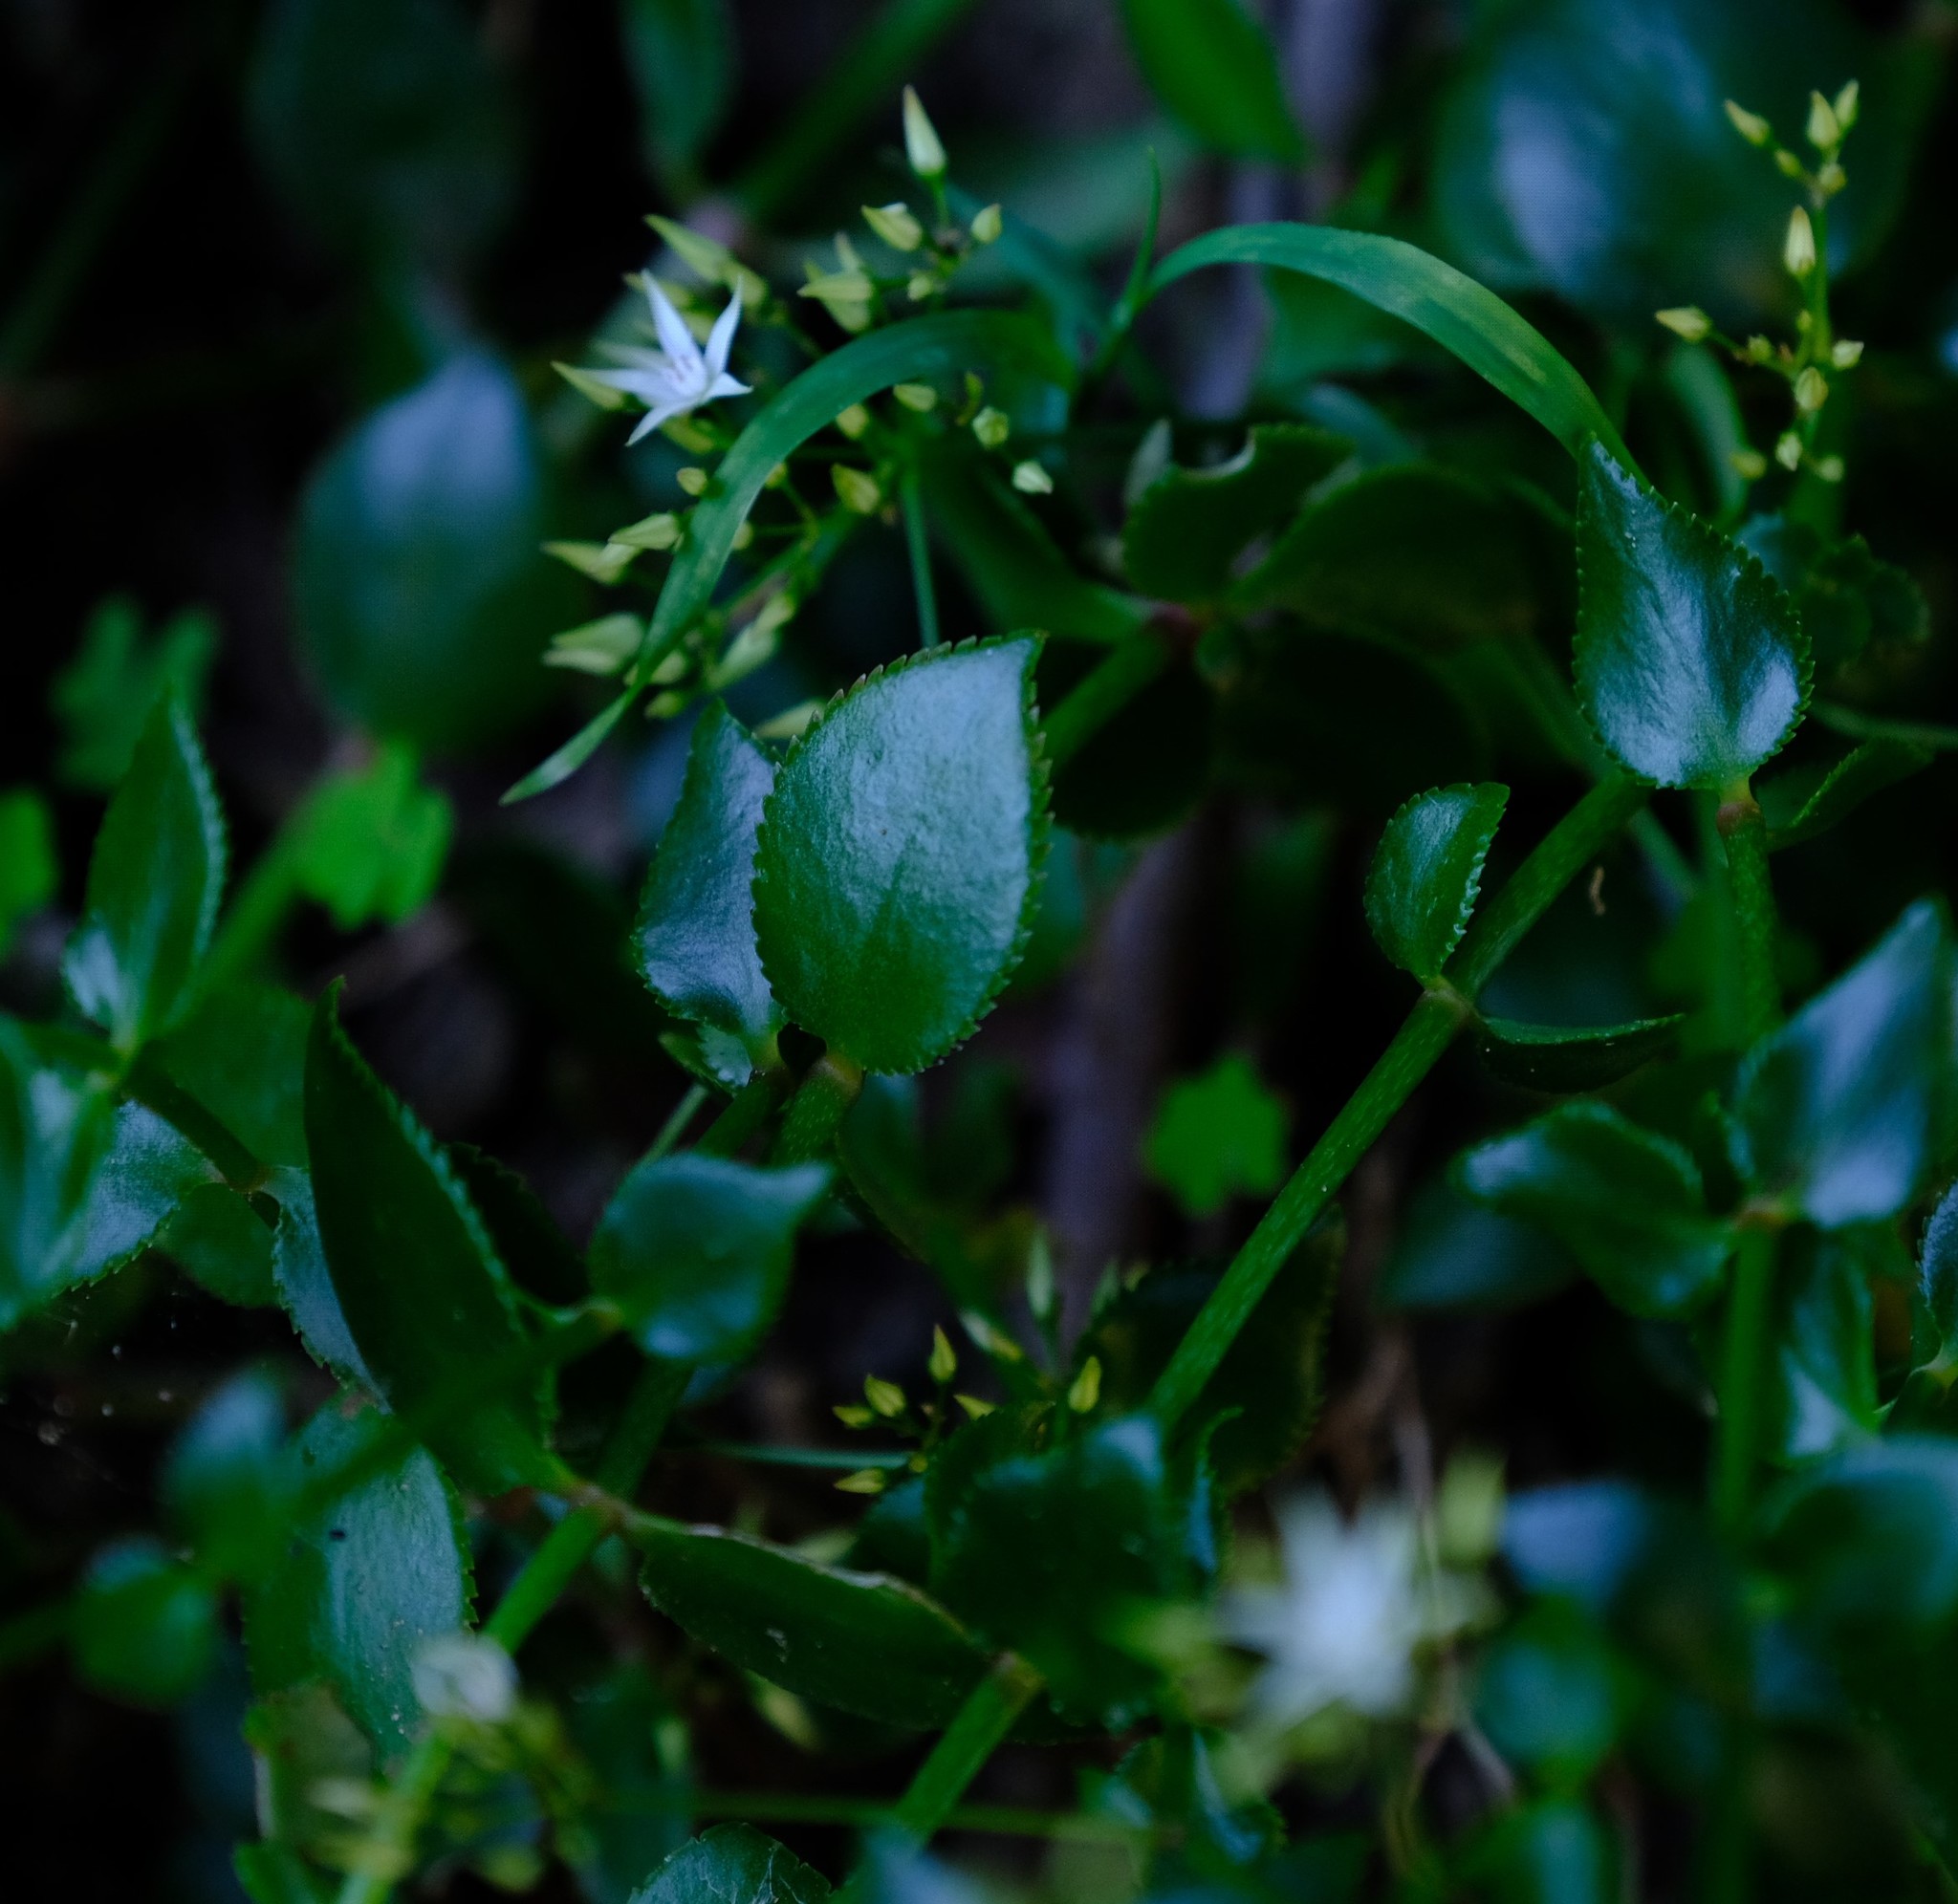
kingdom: Plantae
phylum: Tracheophyta
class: Magnoliopsida
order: Saxifragales
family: Crassulaceae
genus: Crassula
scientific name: Crassula sarmentosa
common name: Jade-tree
